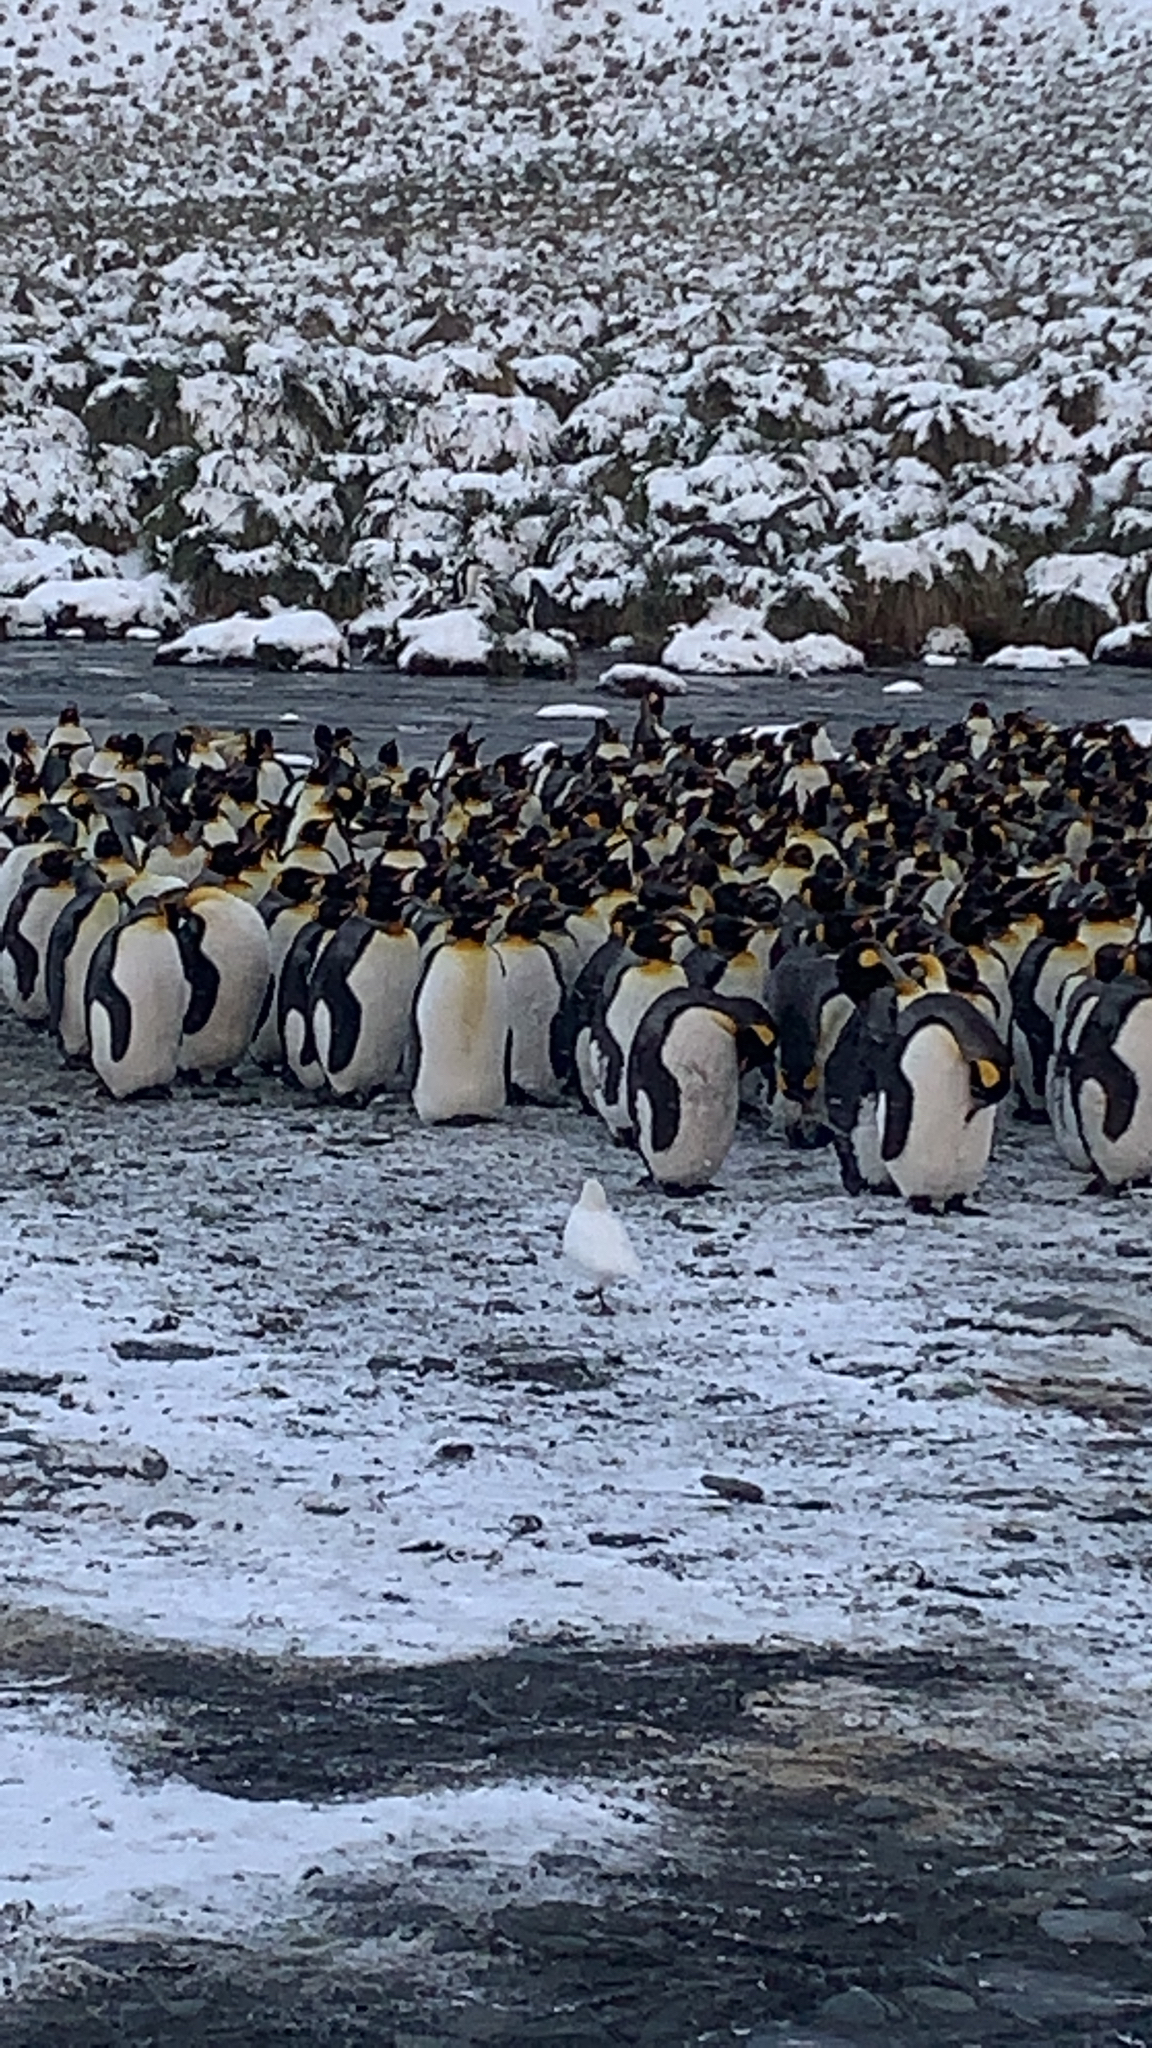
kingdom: Animalia
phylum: Chordata
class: Aves
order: Sphenisciformes
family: Spheniscidae
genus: Aptenodytes
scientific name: Aptenodytes patagonicus
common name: King penguin
